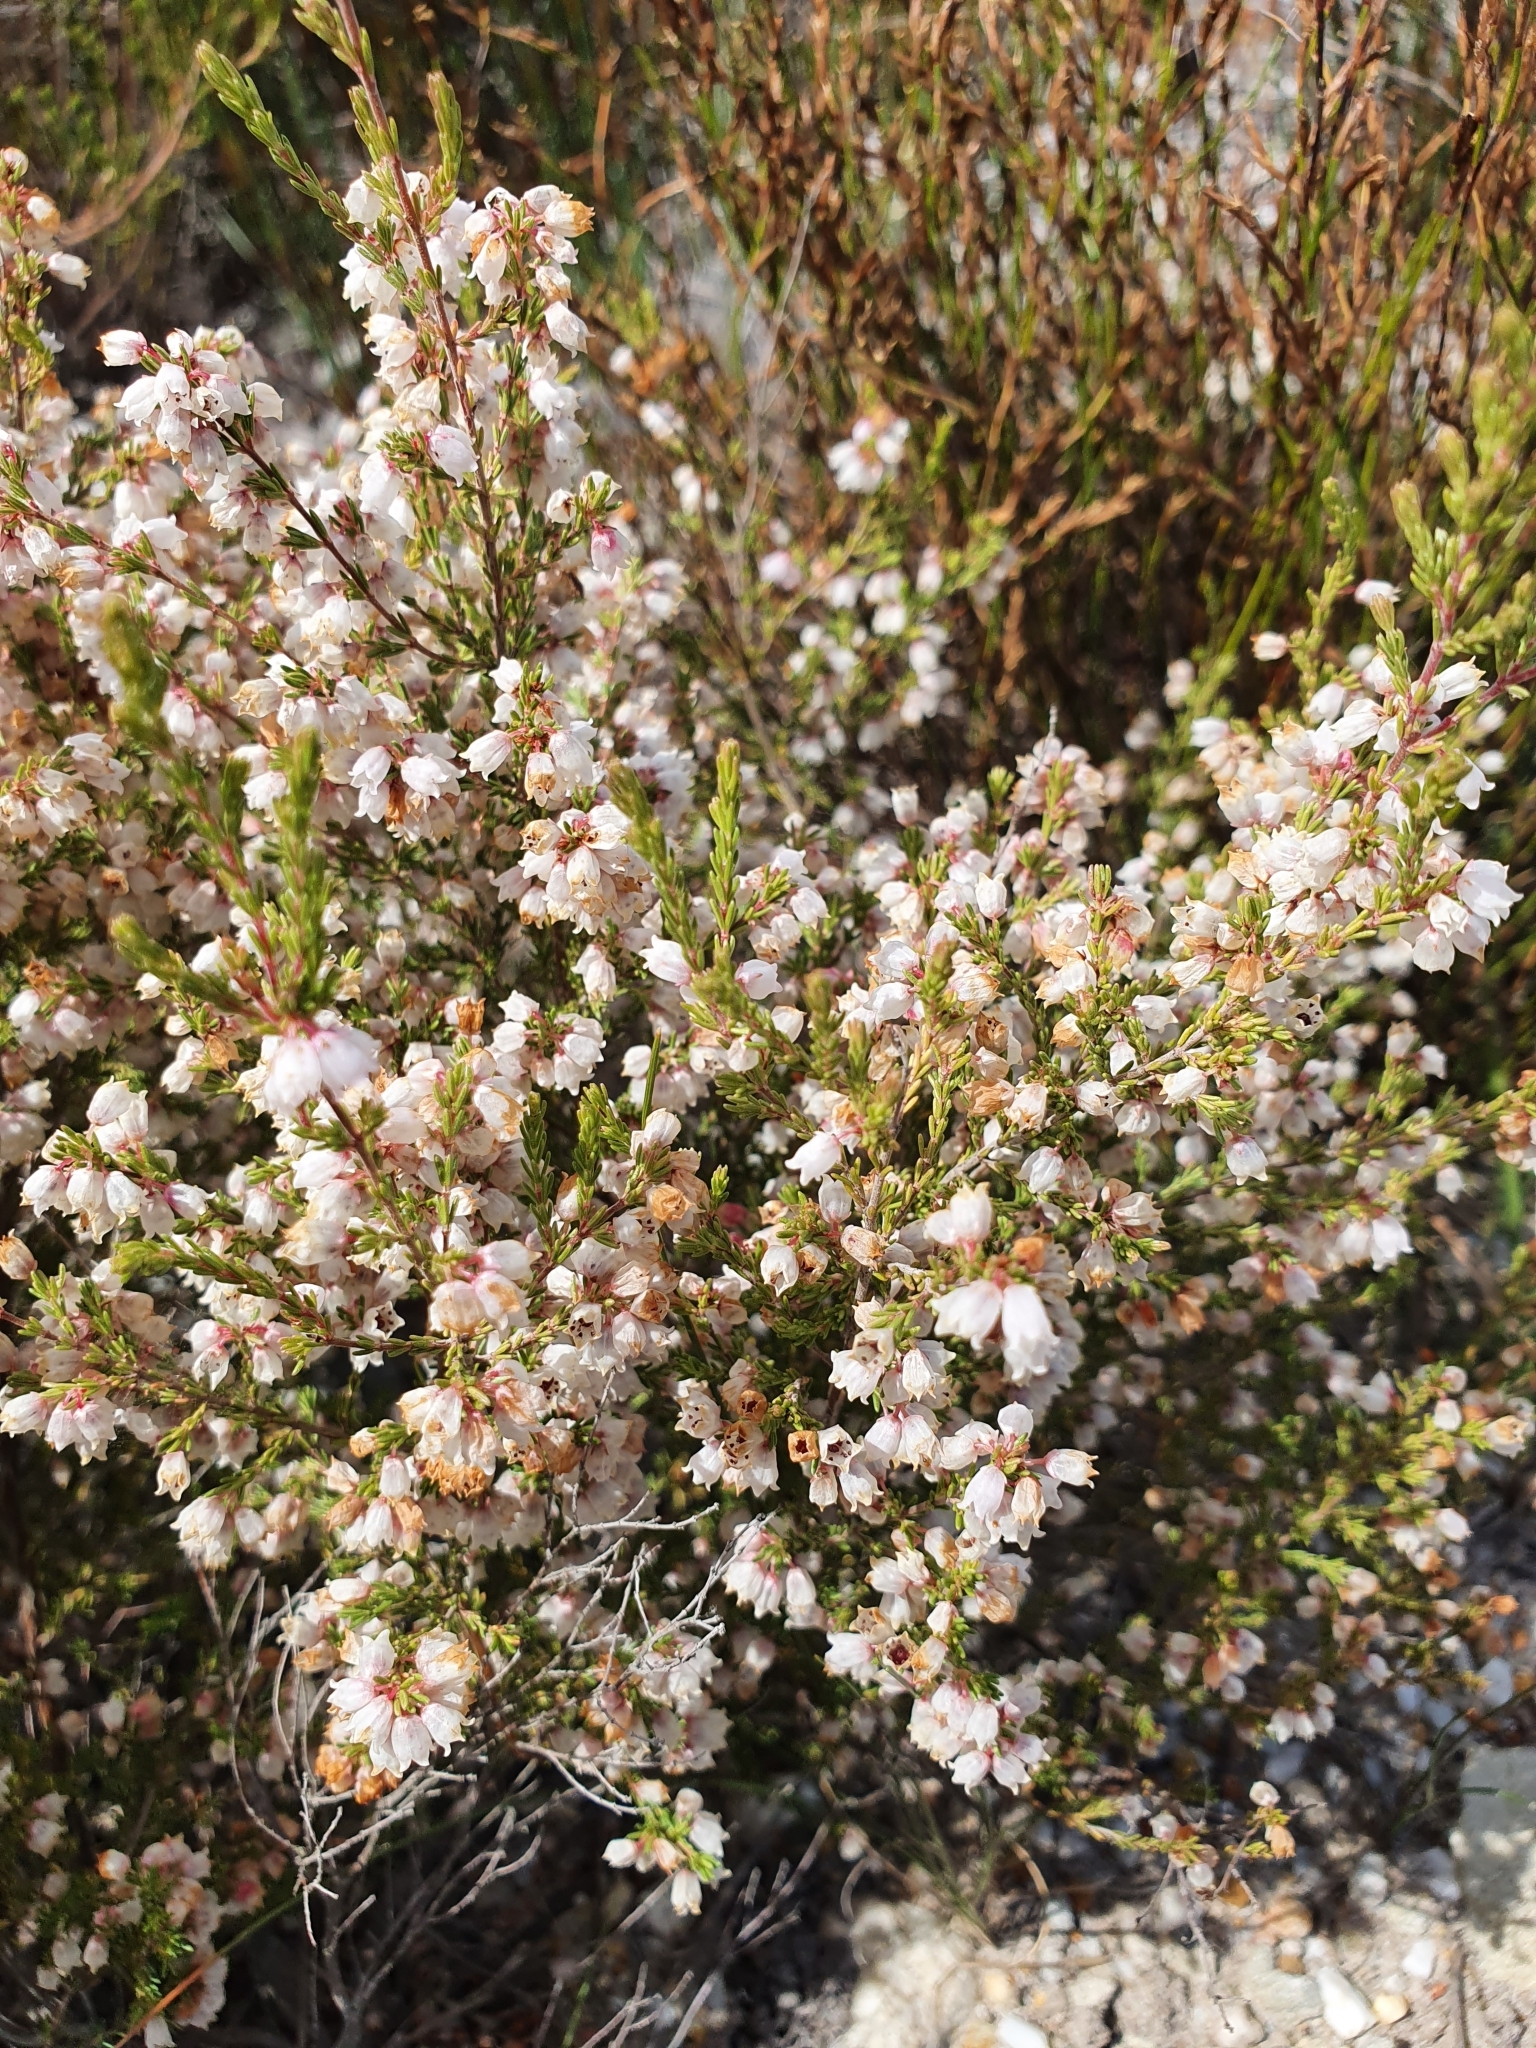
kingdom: Plantae
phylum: Tracheophyta
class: Magnoliopsida
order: Ericales
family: Ericaceae
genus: Erica
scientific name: Erica quadrangularis
